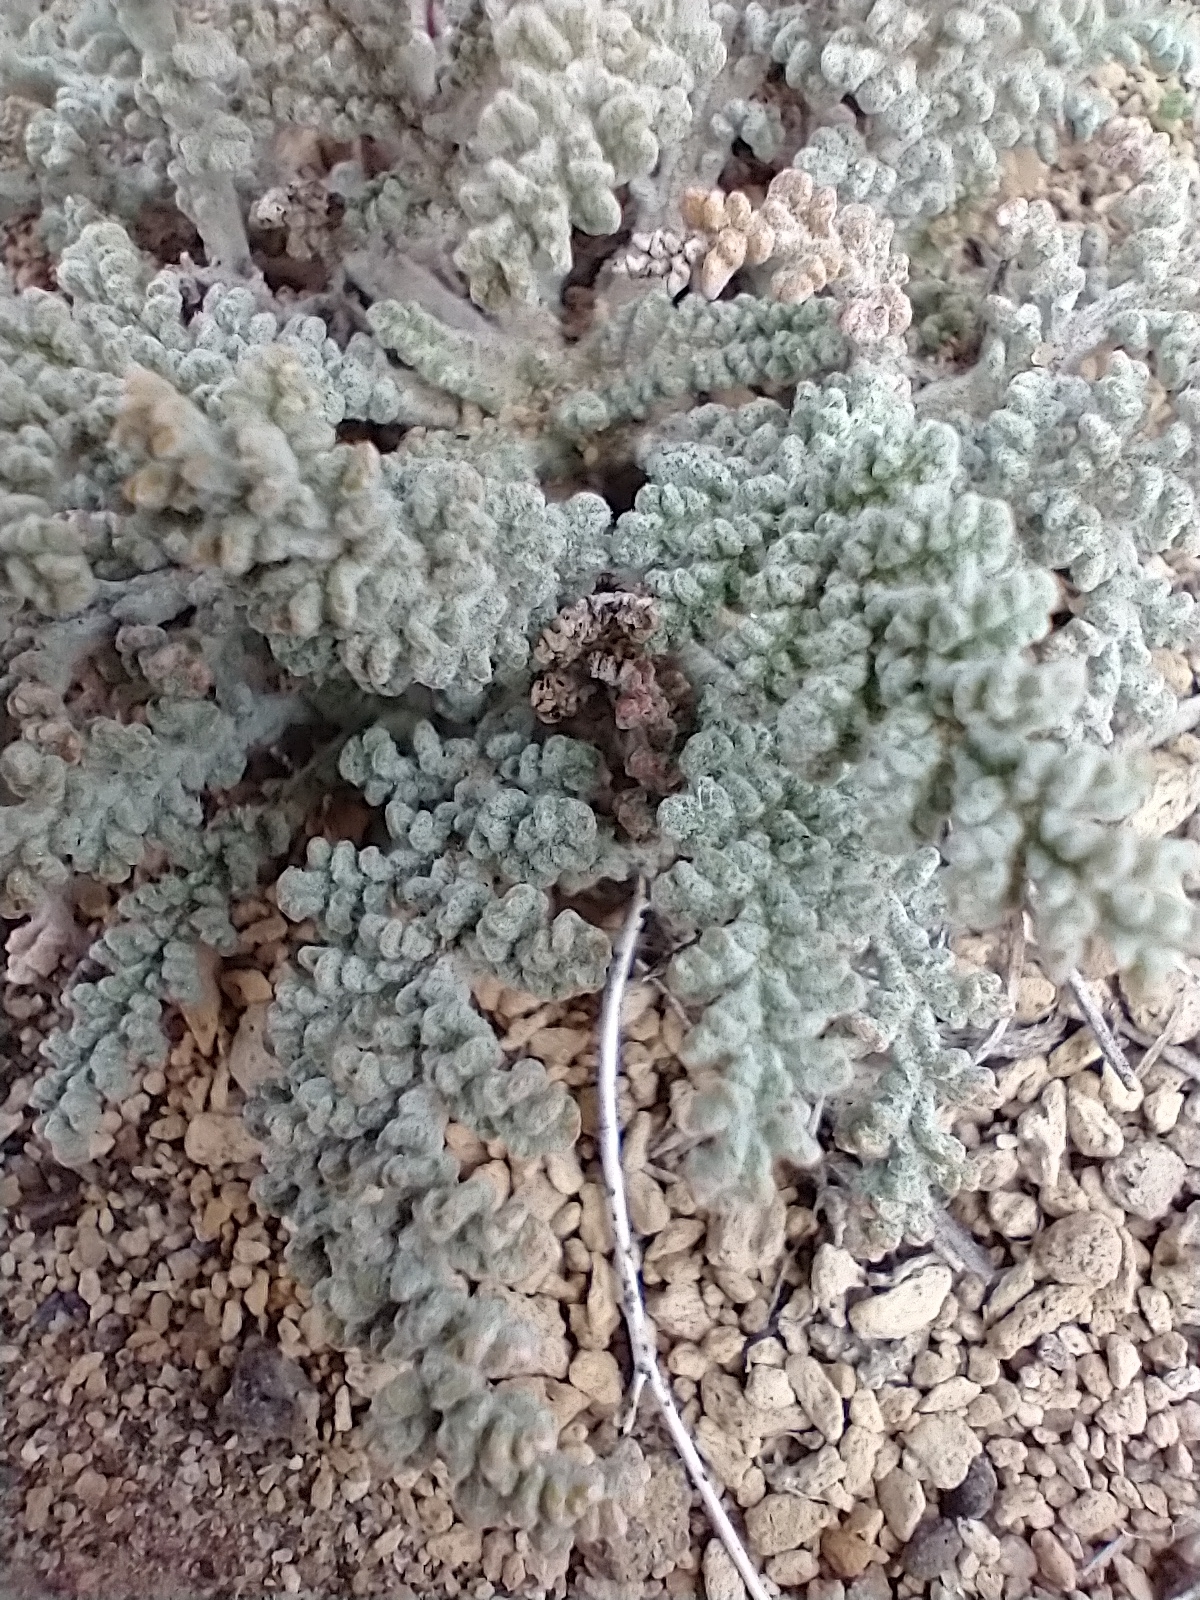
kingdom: Plantae
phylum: Tracheophyta
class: Magnoliopsida
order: Asterales
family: Asteraceae
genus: Chaenactis
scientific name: Chaenactis douglasii
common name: Hoary pincushion
